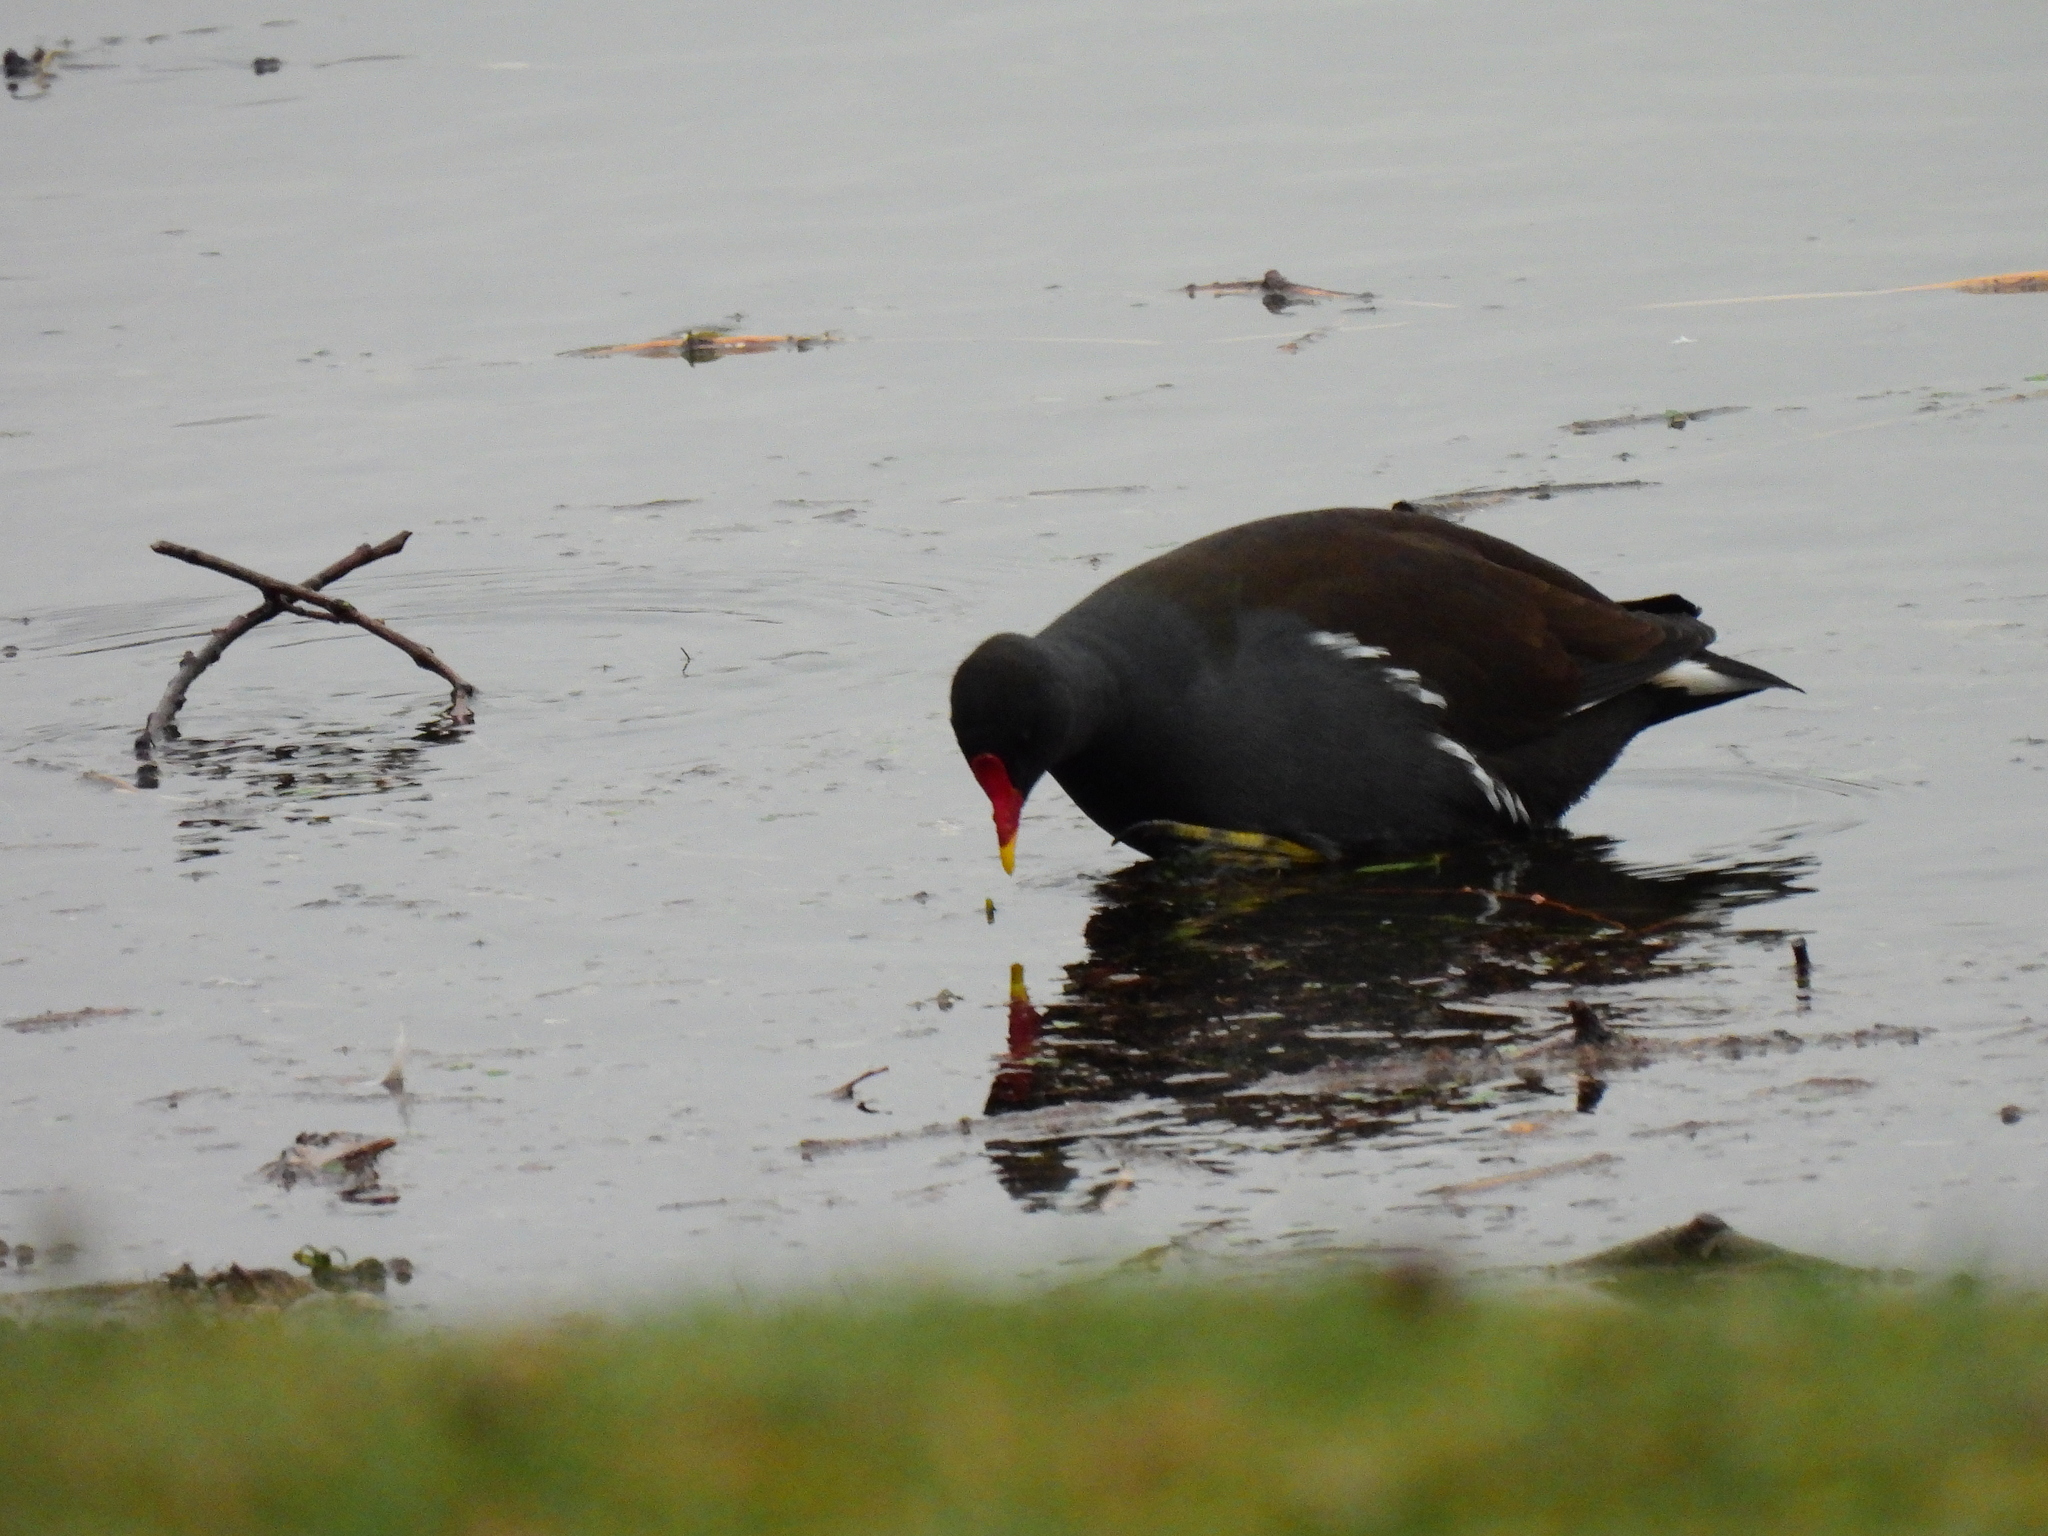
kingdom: Animalia
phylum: Chordata
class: Aves
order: Gruiformes
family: Rallidae
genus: Gallinula
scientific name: Gallinula chloropus
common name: Common moorhen
